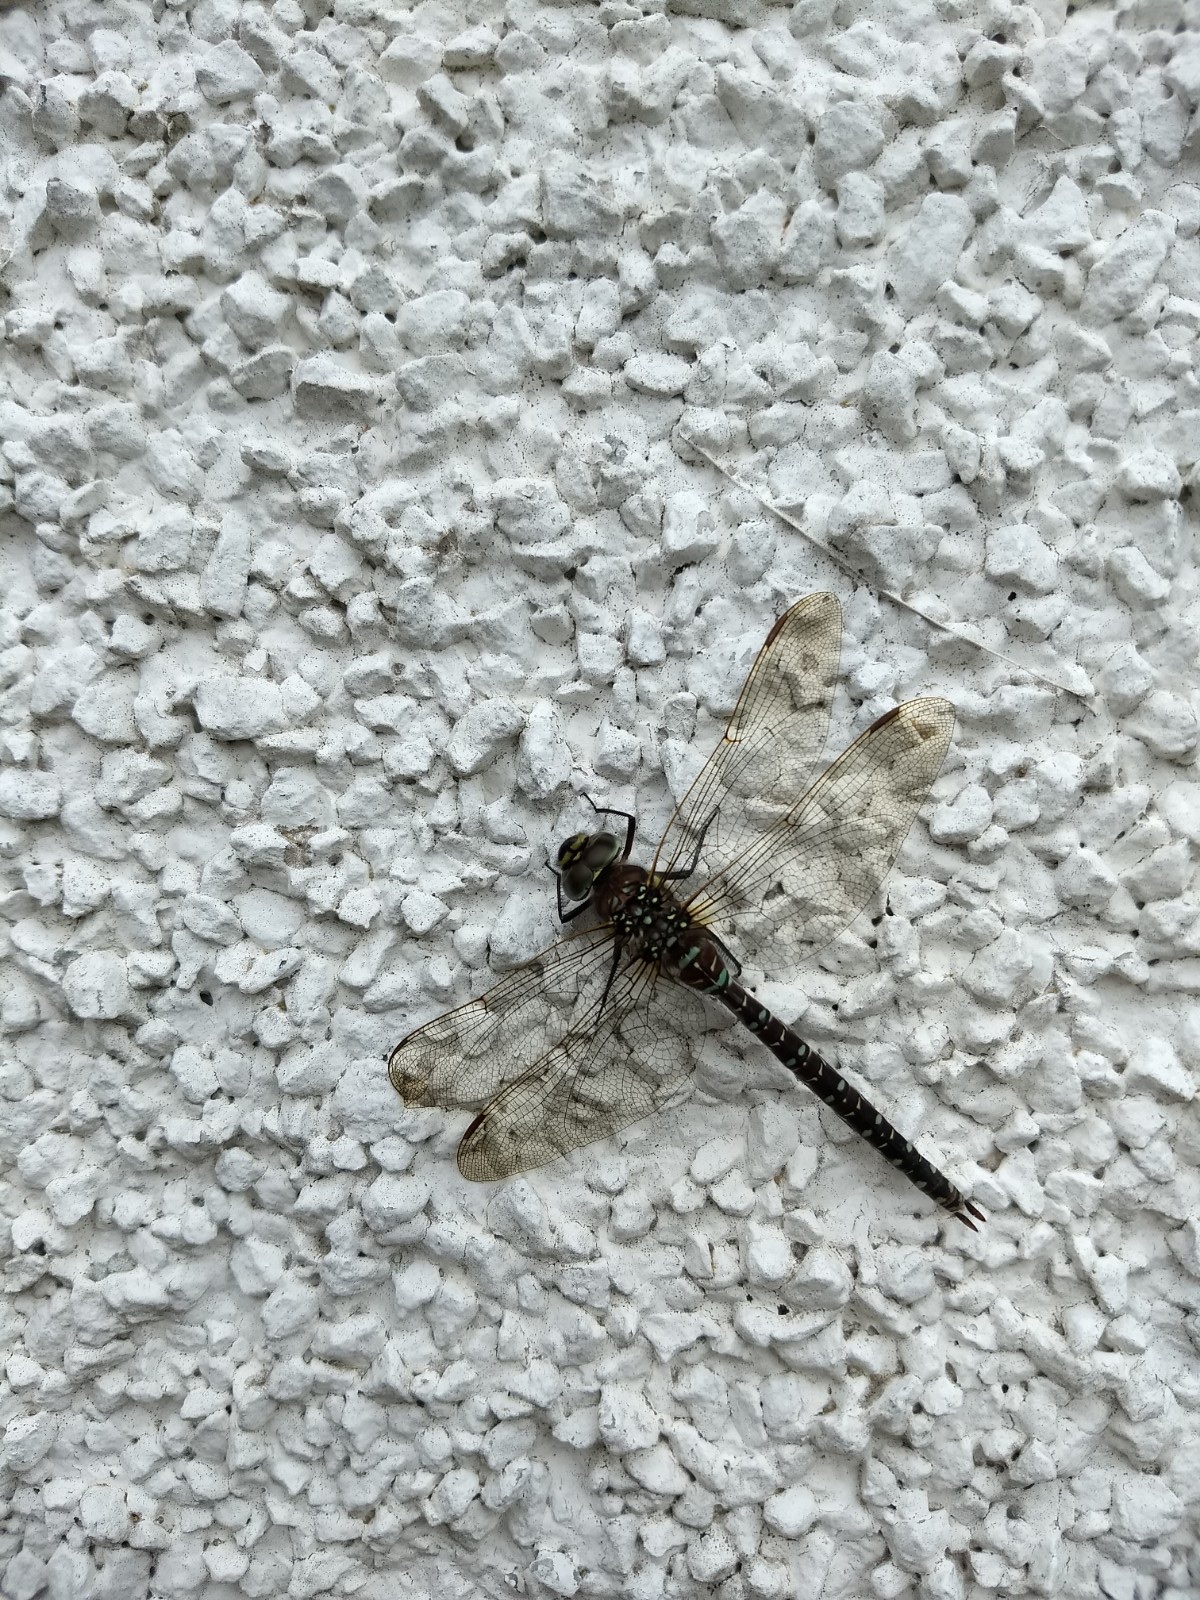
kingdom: Animalia
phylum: Arthropoda
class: Insecta
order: Odonata
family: Aeshnidae
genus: Aeshna
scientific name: Aeshna juncea
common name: Moorland hawker
